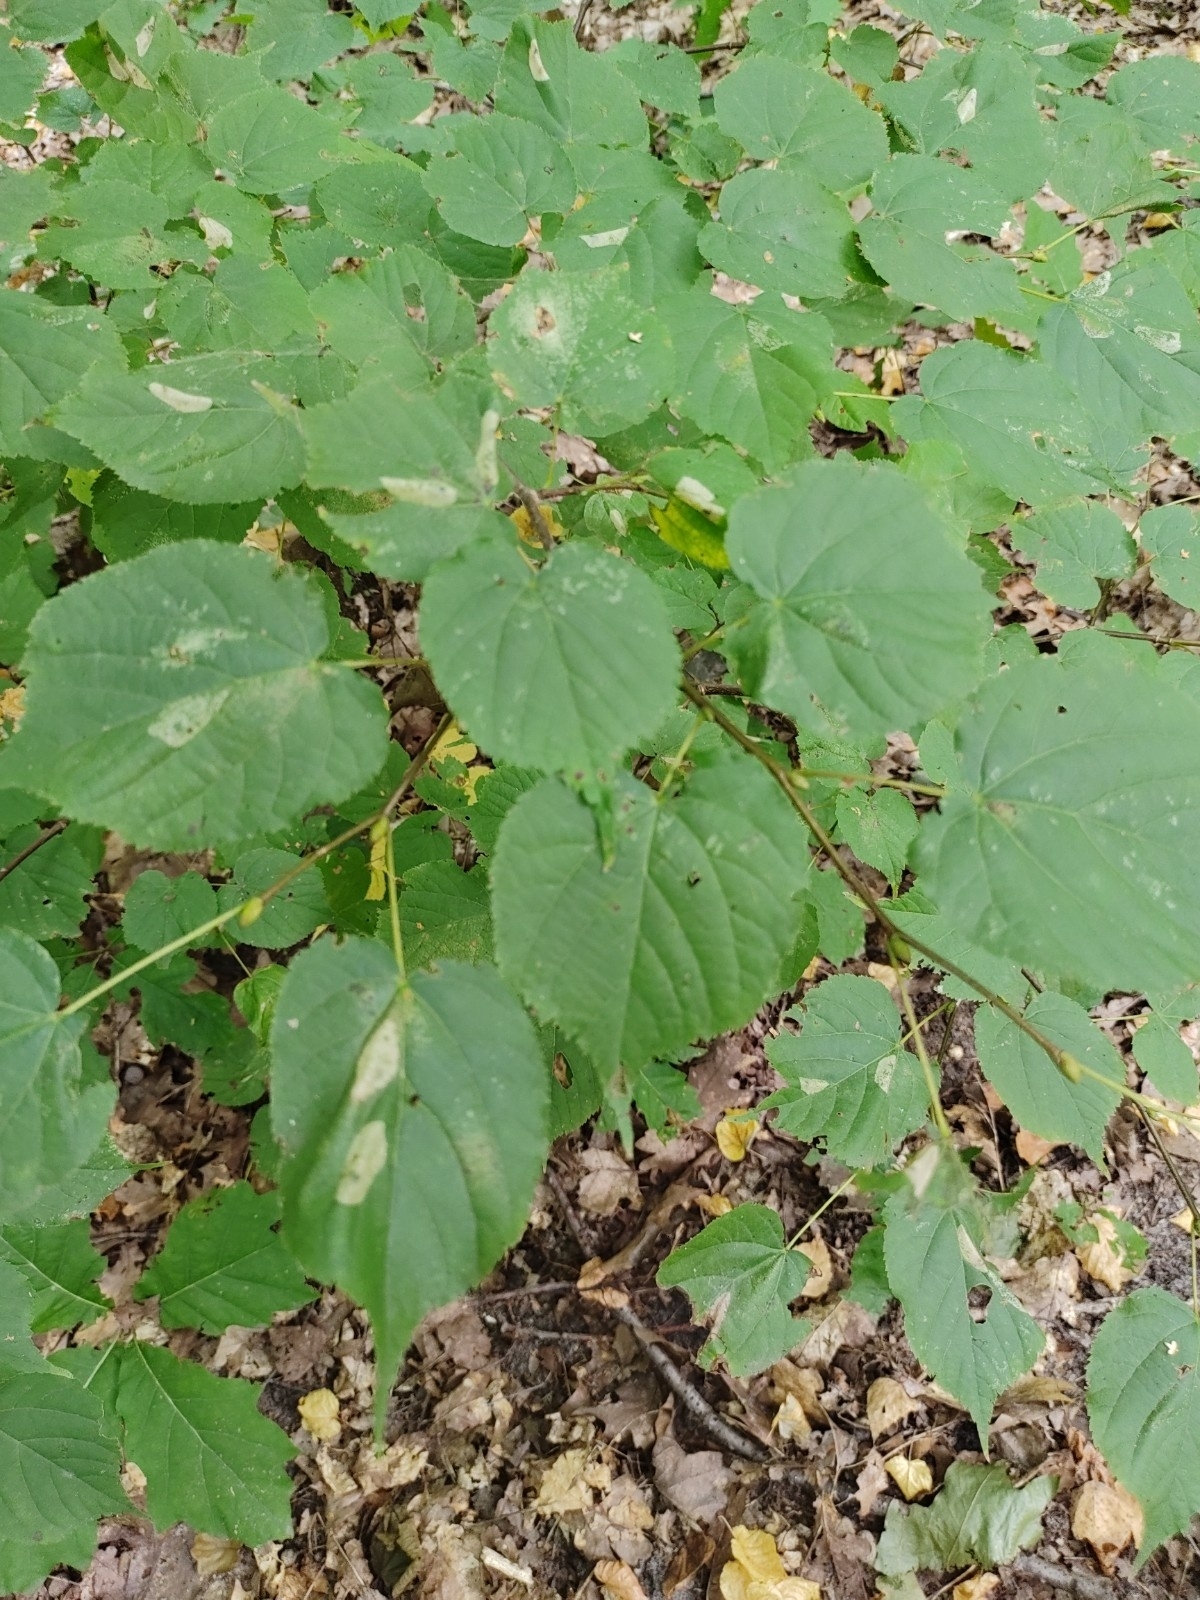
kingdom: Plantae
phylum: Tracheophyta
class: Magnoliopsida
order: Malvales
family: Malvaceae
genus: Tilia
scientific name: Tilia cordata
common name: Small-leaved lime
